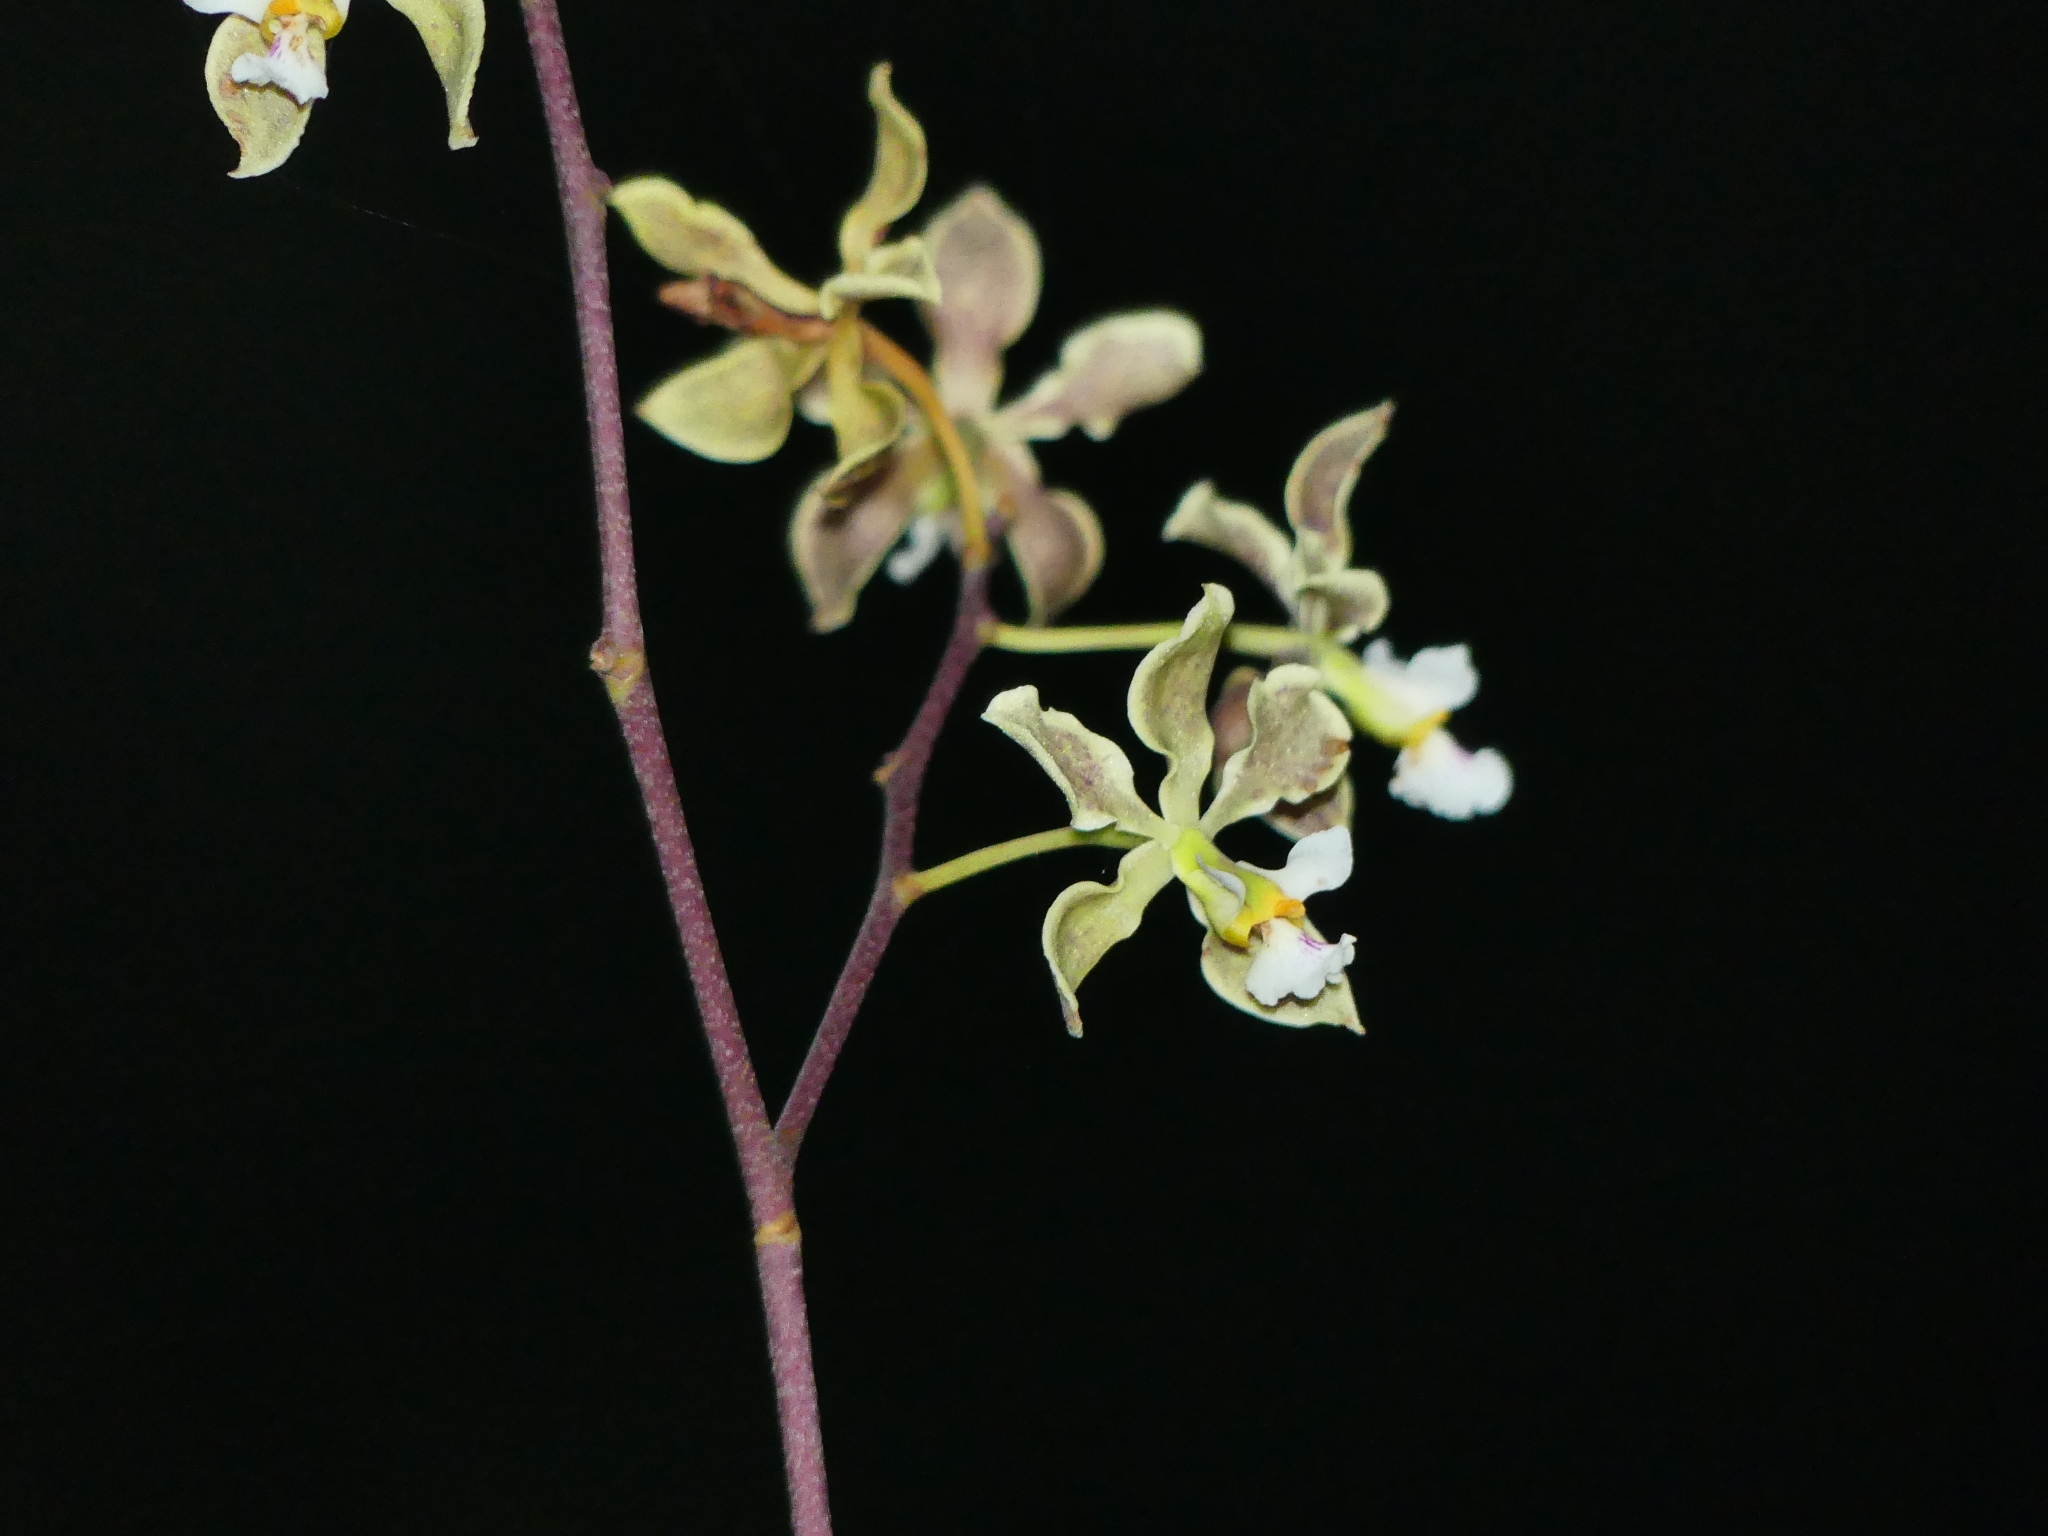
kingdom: Plantae
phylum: Tracheophyta
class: Liliopsida
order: Asparagales
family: Orchidaceae
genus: Encyclia
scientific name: Encyclia granitica
